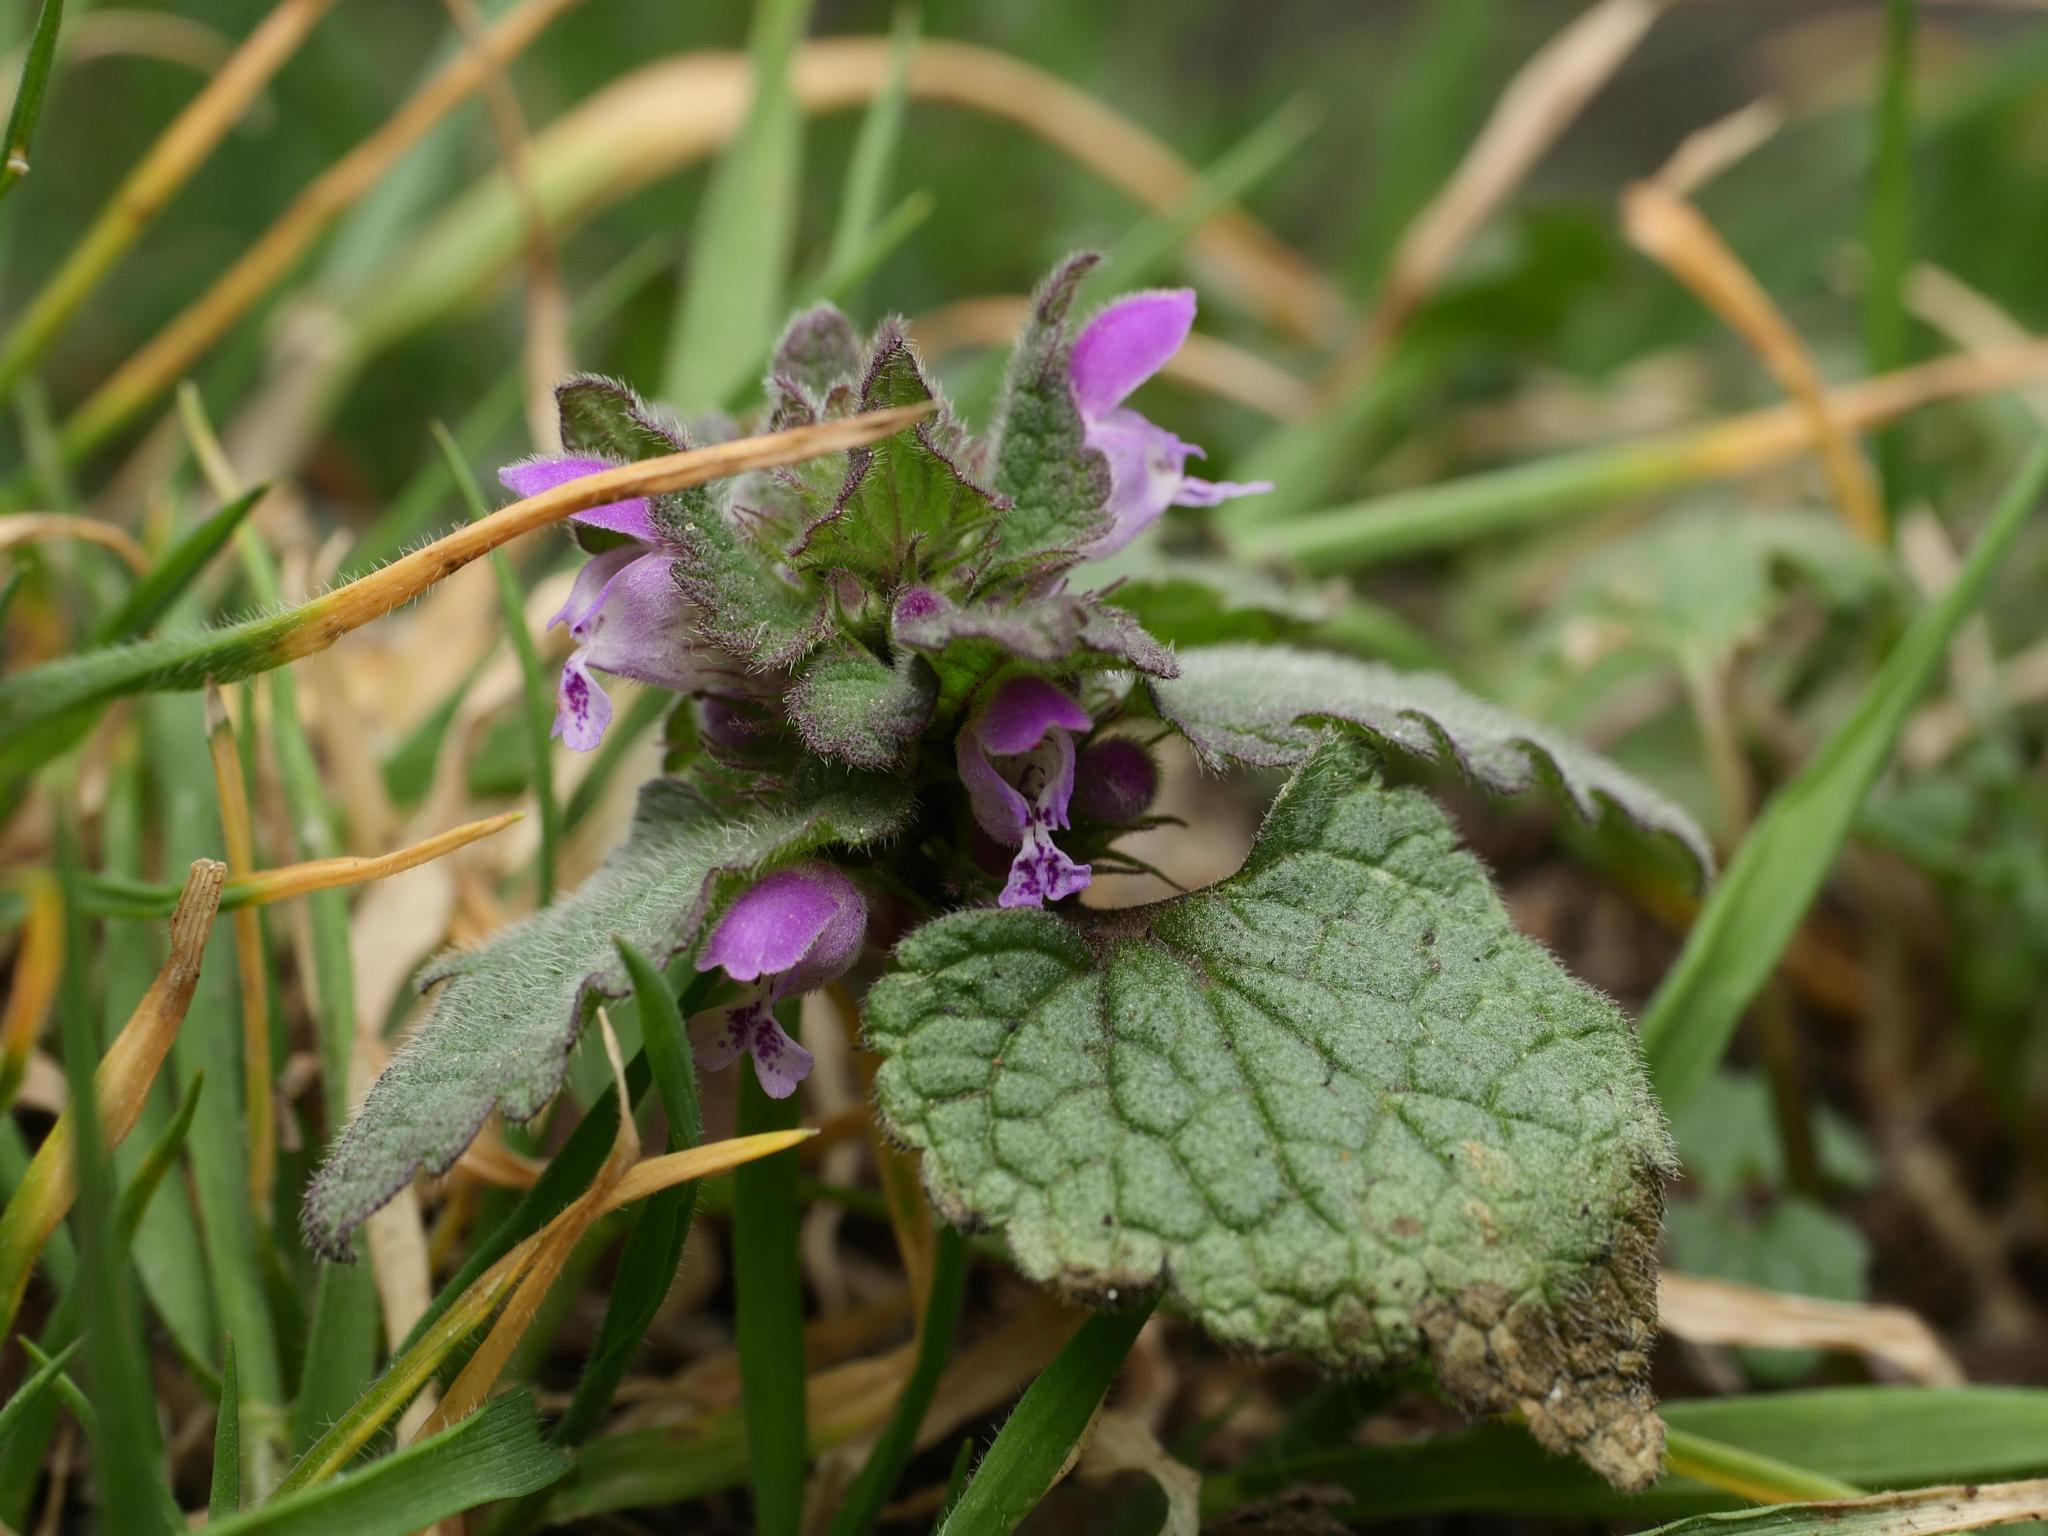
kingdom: Plantae
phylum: Tracheophyta
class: Magnoliopsida
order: Lamiales
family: Lamiaceae
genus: Lamium
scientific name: Lamium purpureum
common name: Red dead-nettle
